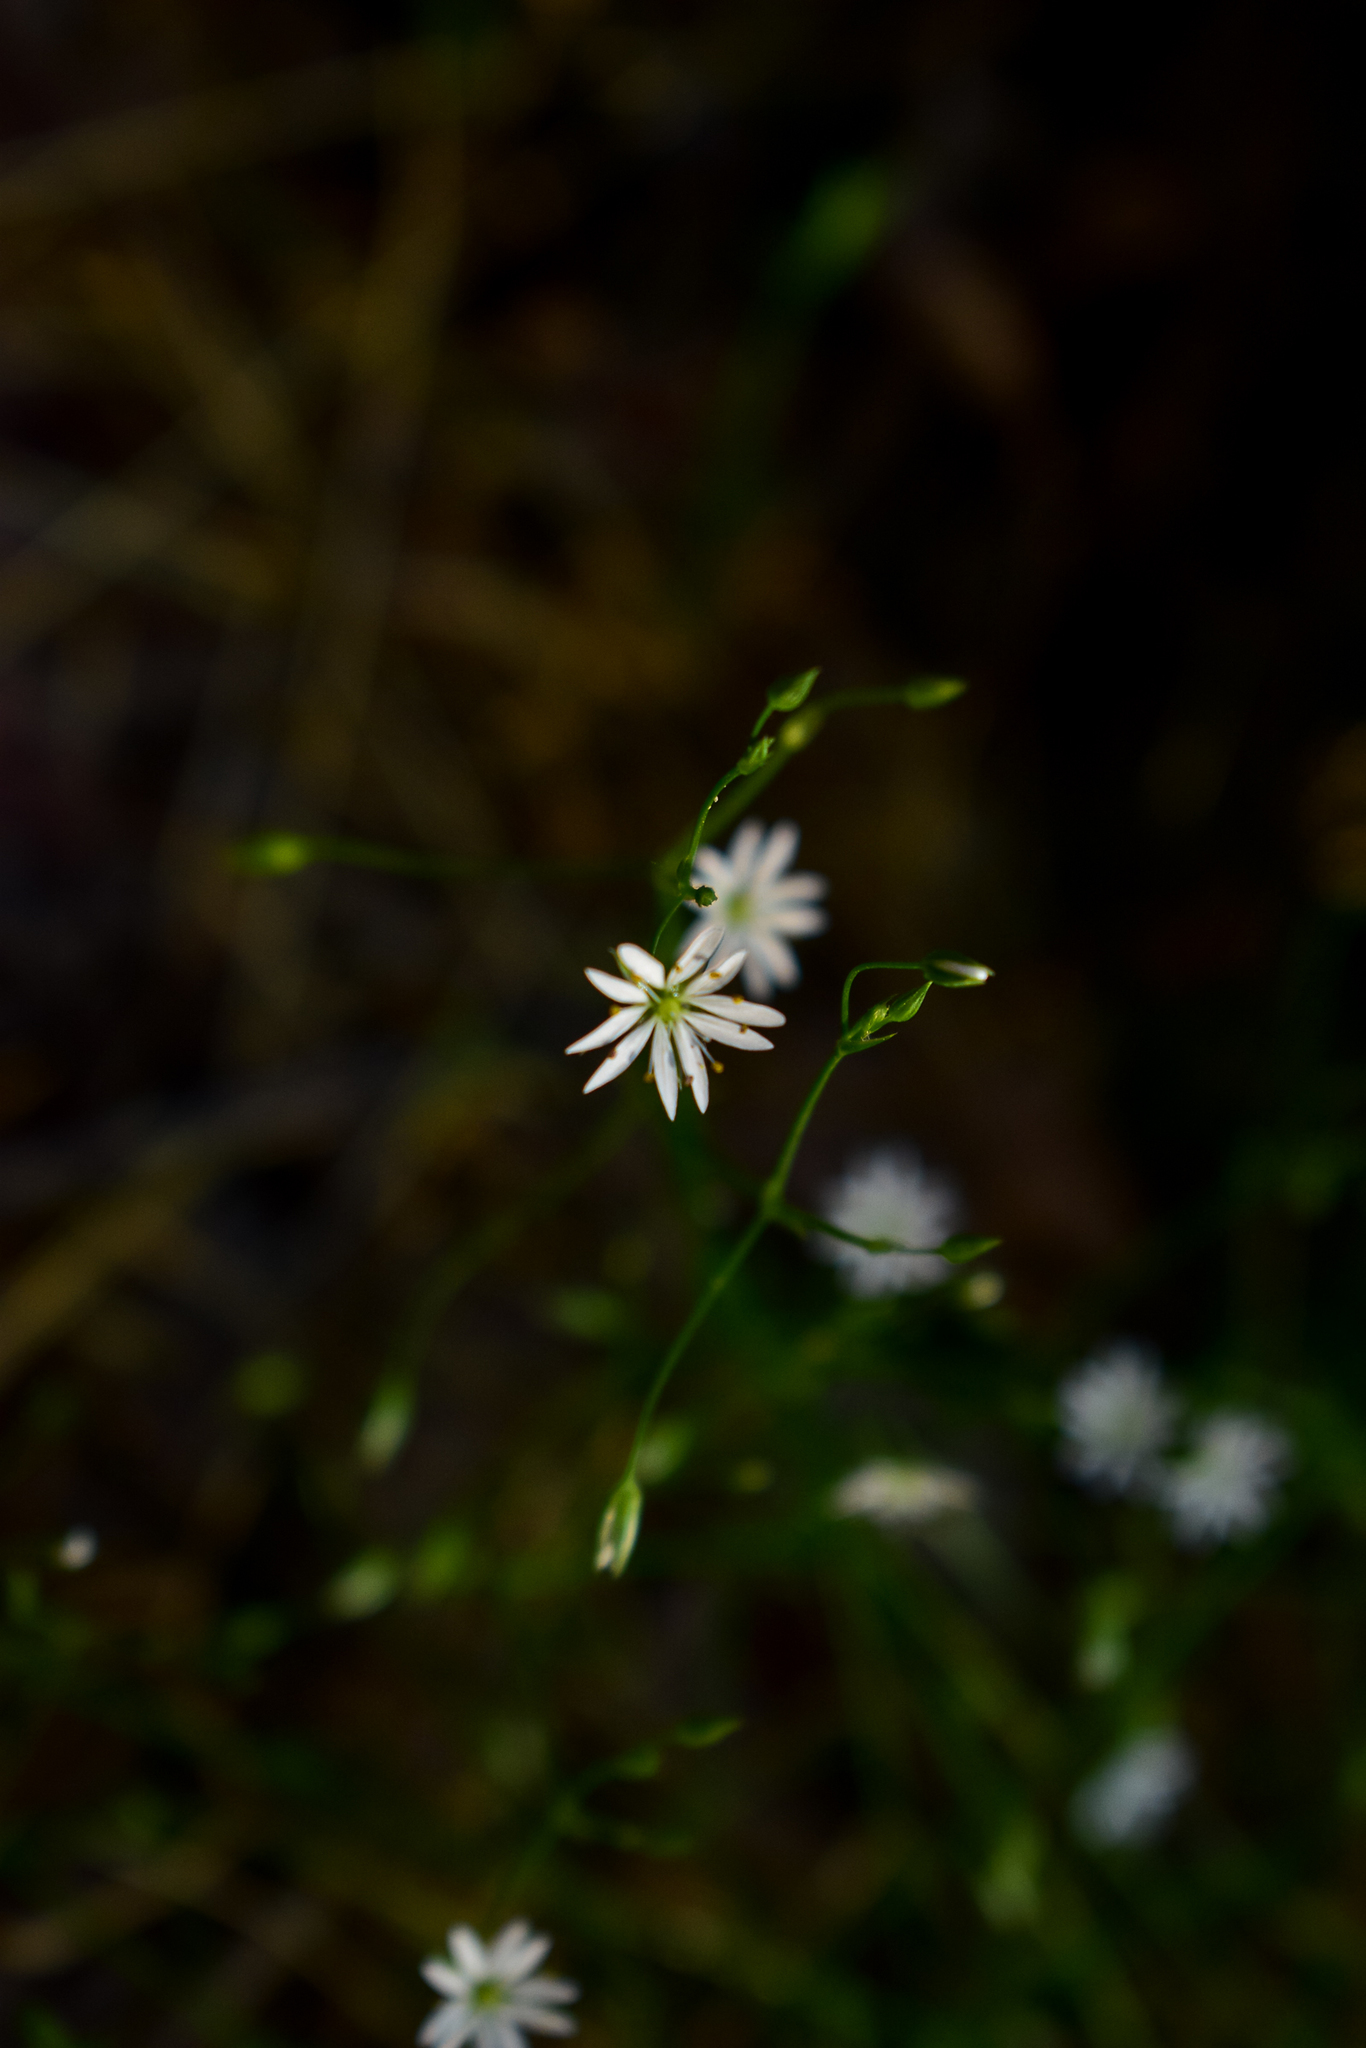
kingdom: Plantae
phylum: Tracheophyta
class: Magnoliopsida
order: Caryophyllales
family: Caryophyllaceae
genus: Stellaria
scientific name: Stellaria graminea
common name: Grass-like starwort
